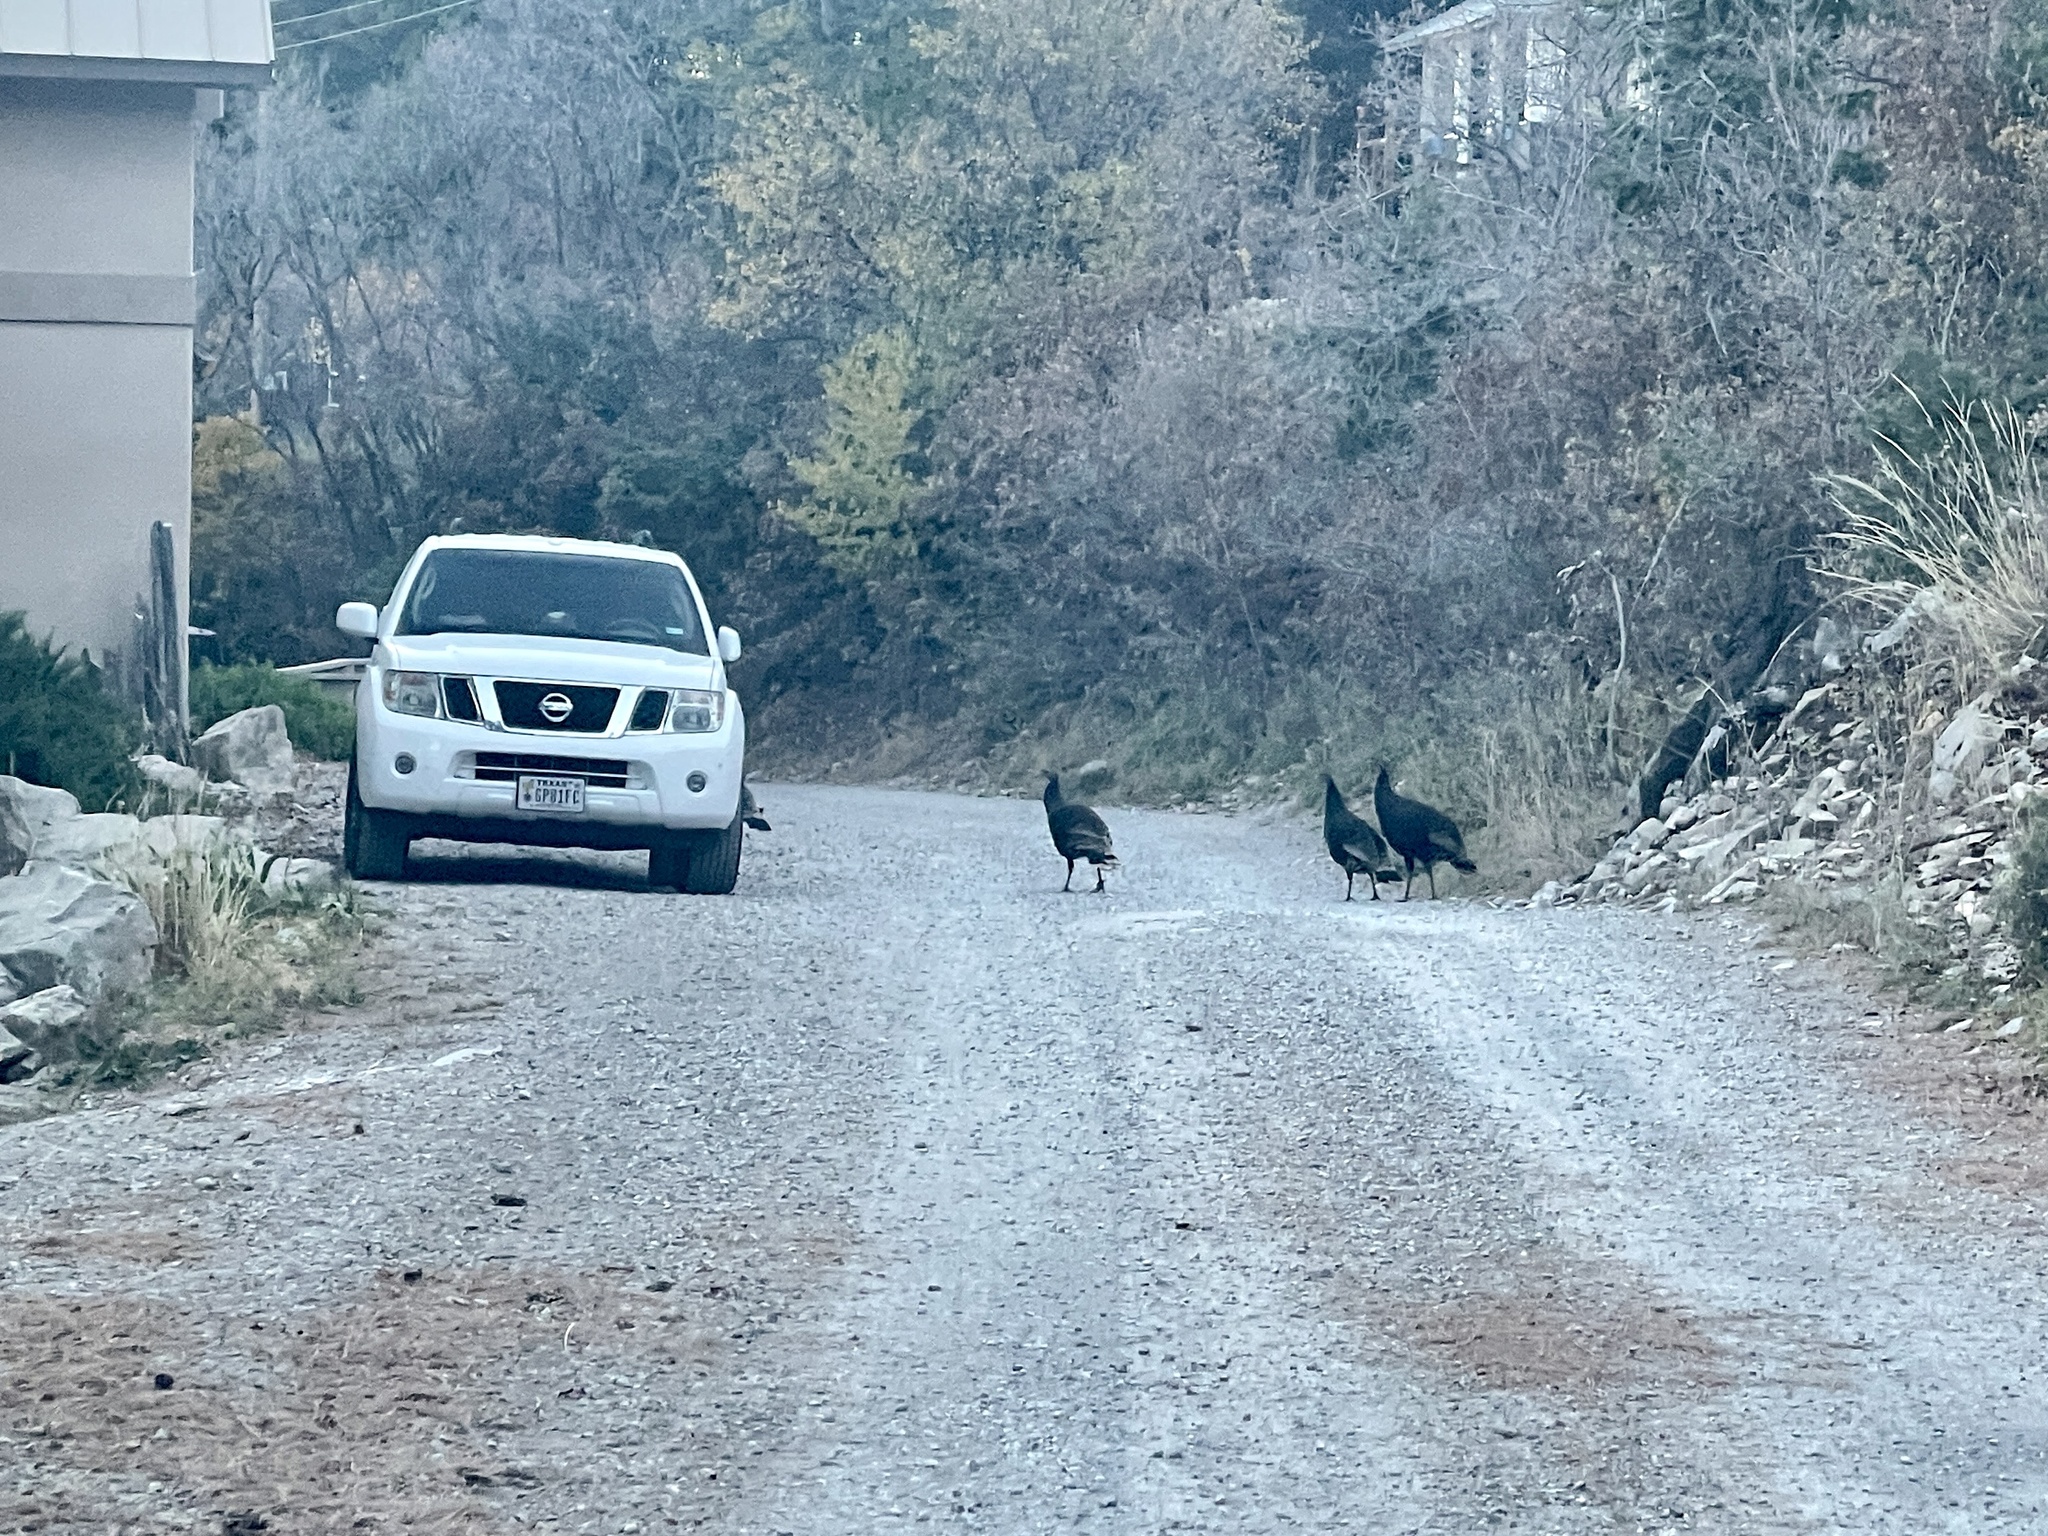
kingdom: Animalia
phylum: Chordata
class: Aves
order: Galliformes
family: Phasianidae
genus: Meleagris
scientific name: Meleagris gallopavo
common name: Wild turkey
